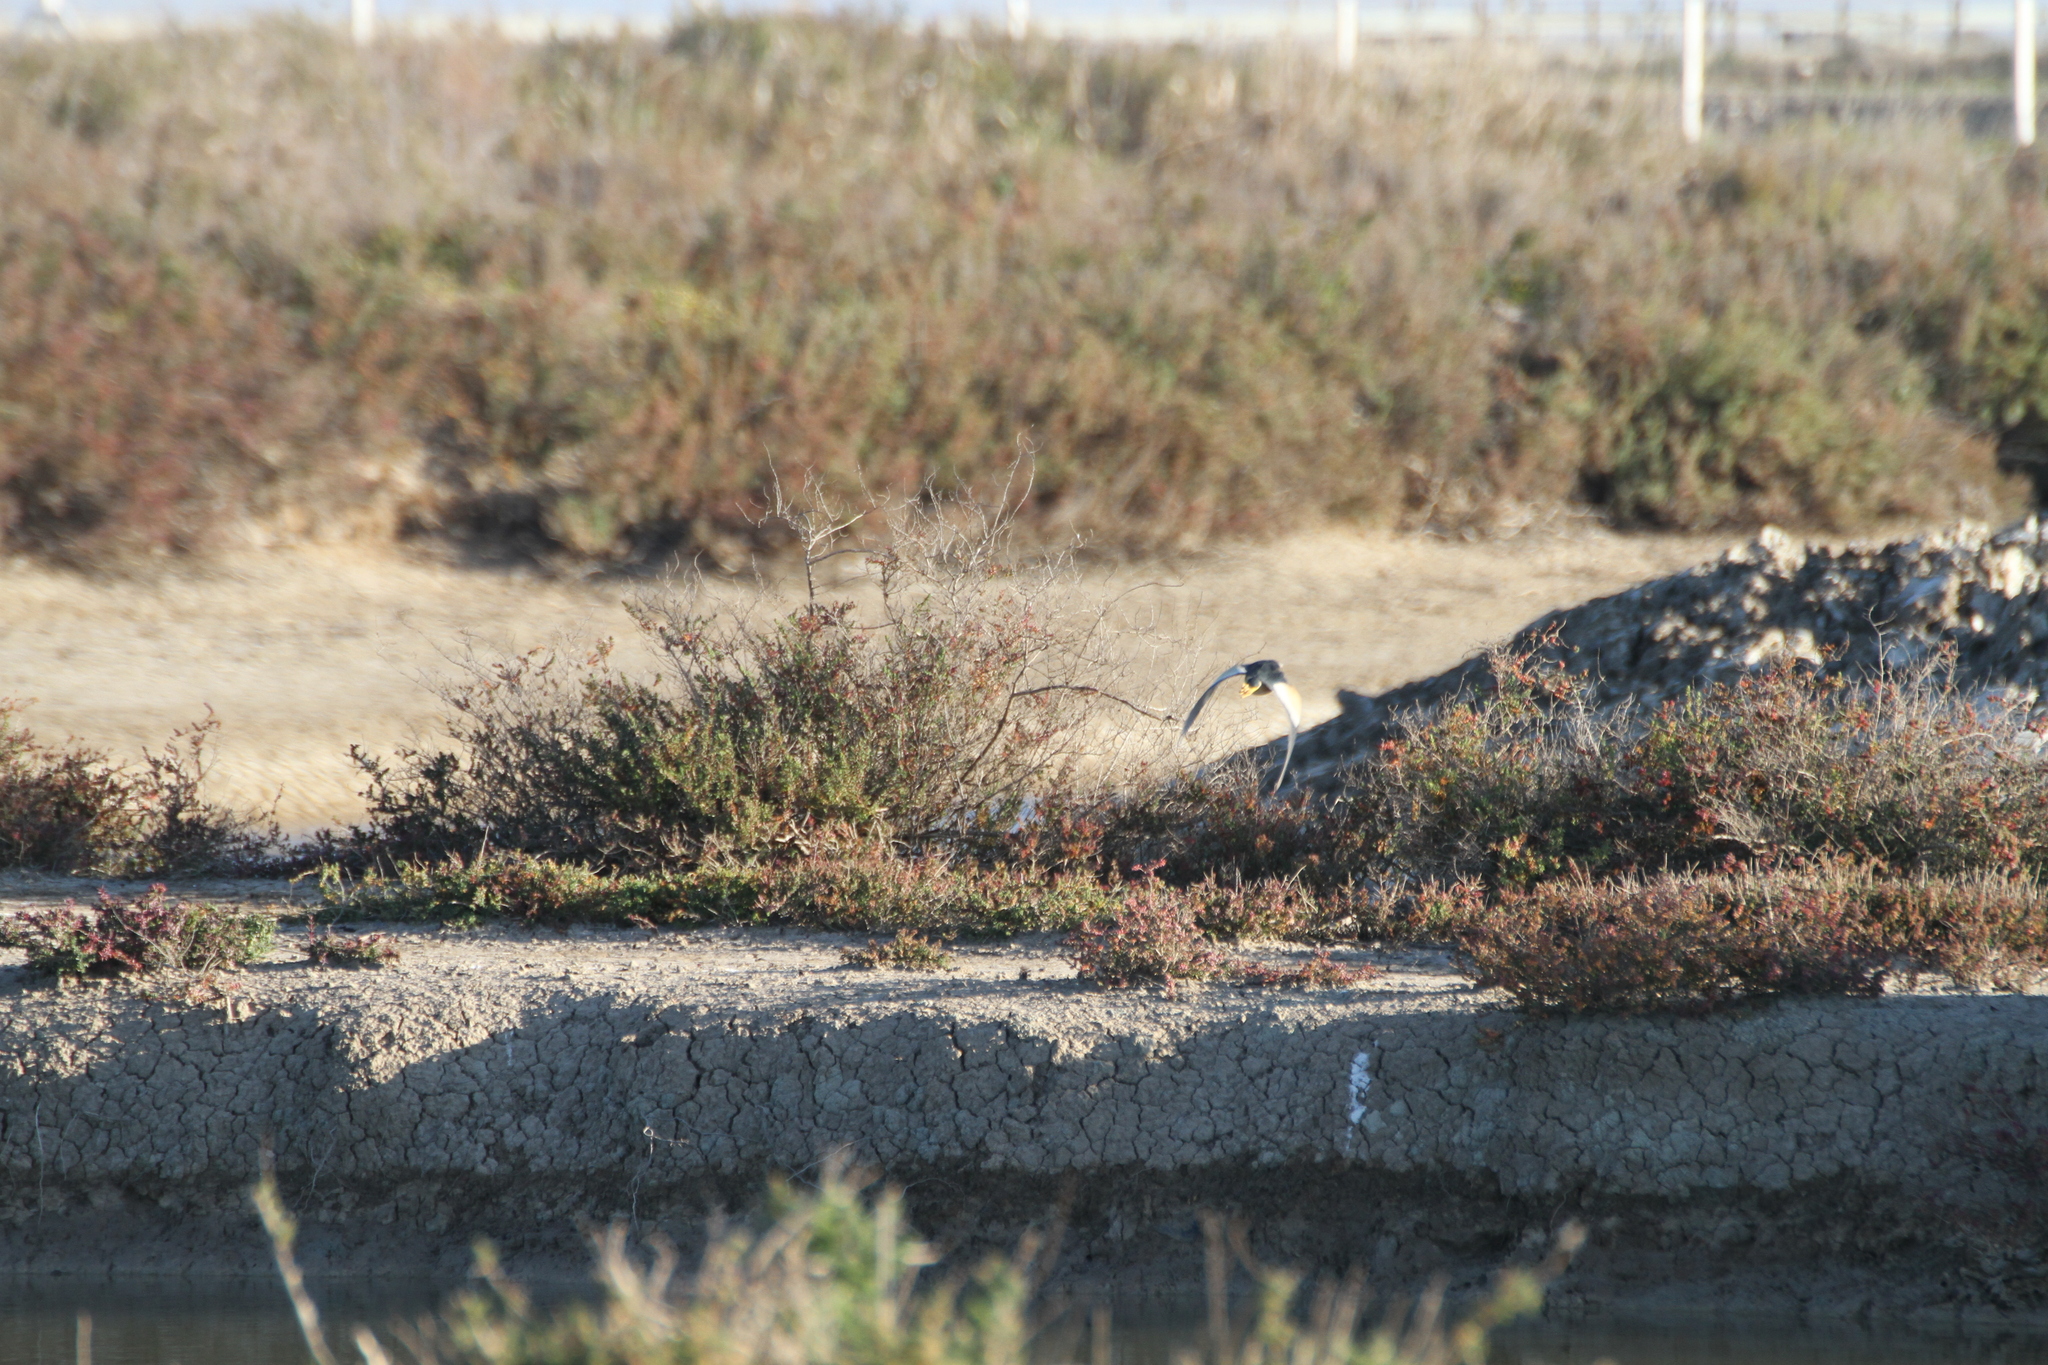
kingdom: Animalia
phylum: Chordata
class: Aves
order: Pelecaniformes
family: Ardeidae
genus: Ixobrychus
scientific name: Ixobrychus minutus
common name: Little bittern
